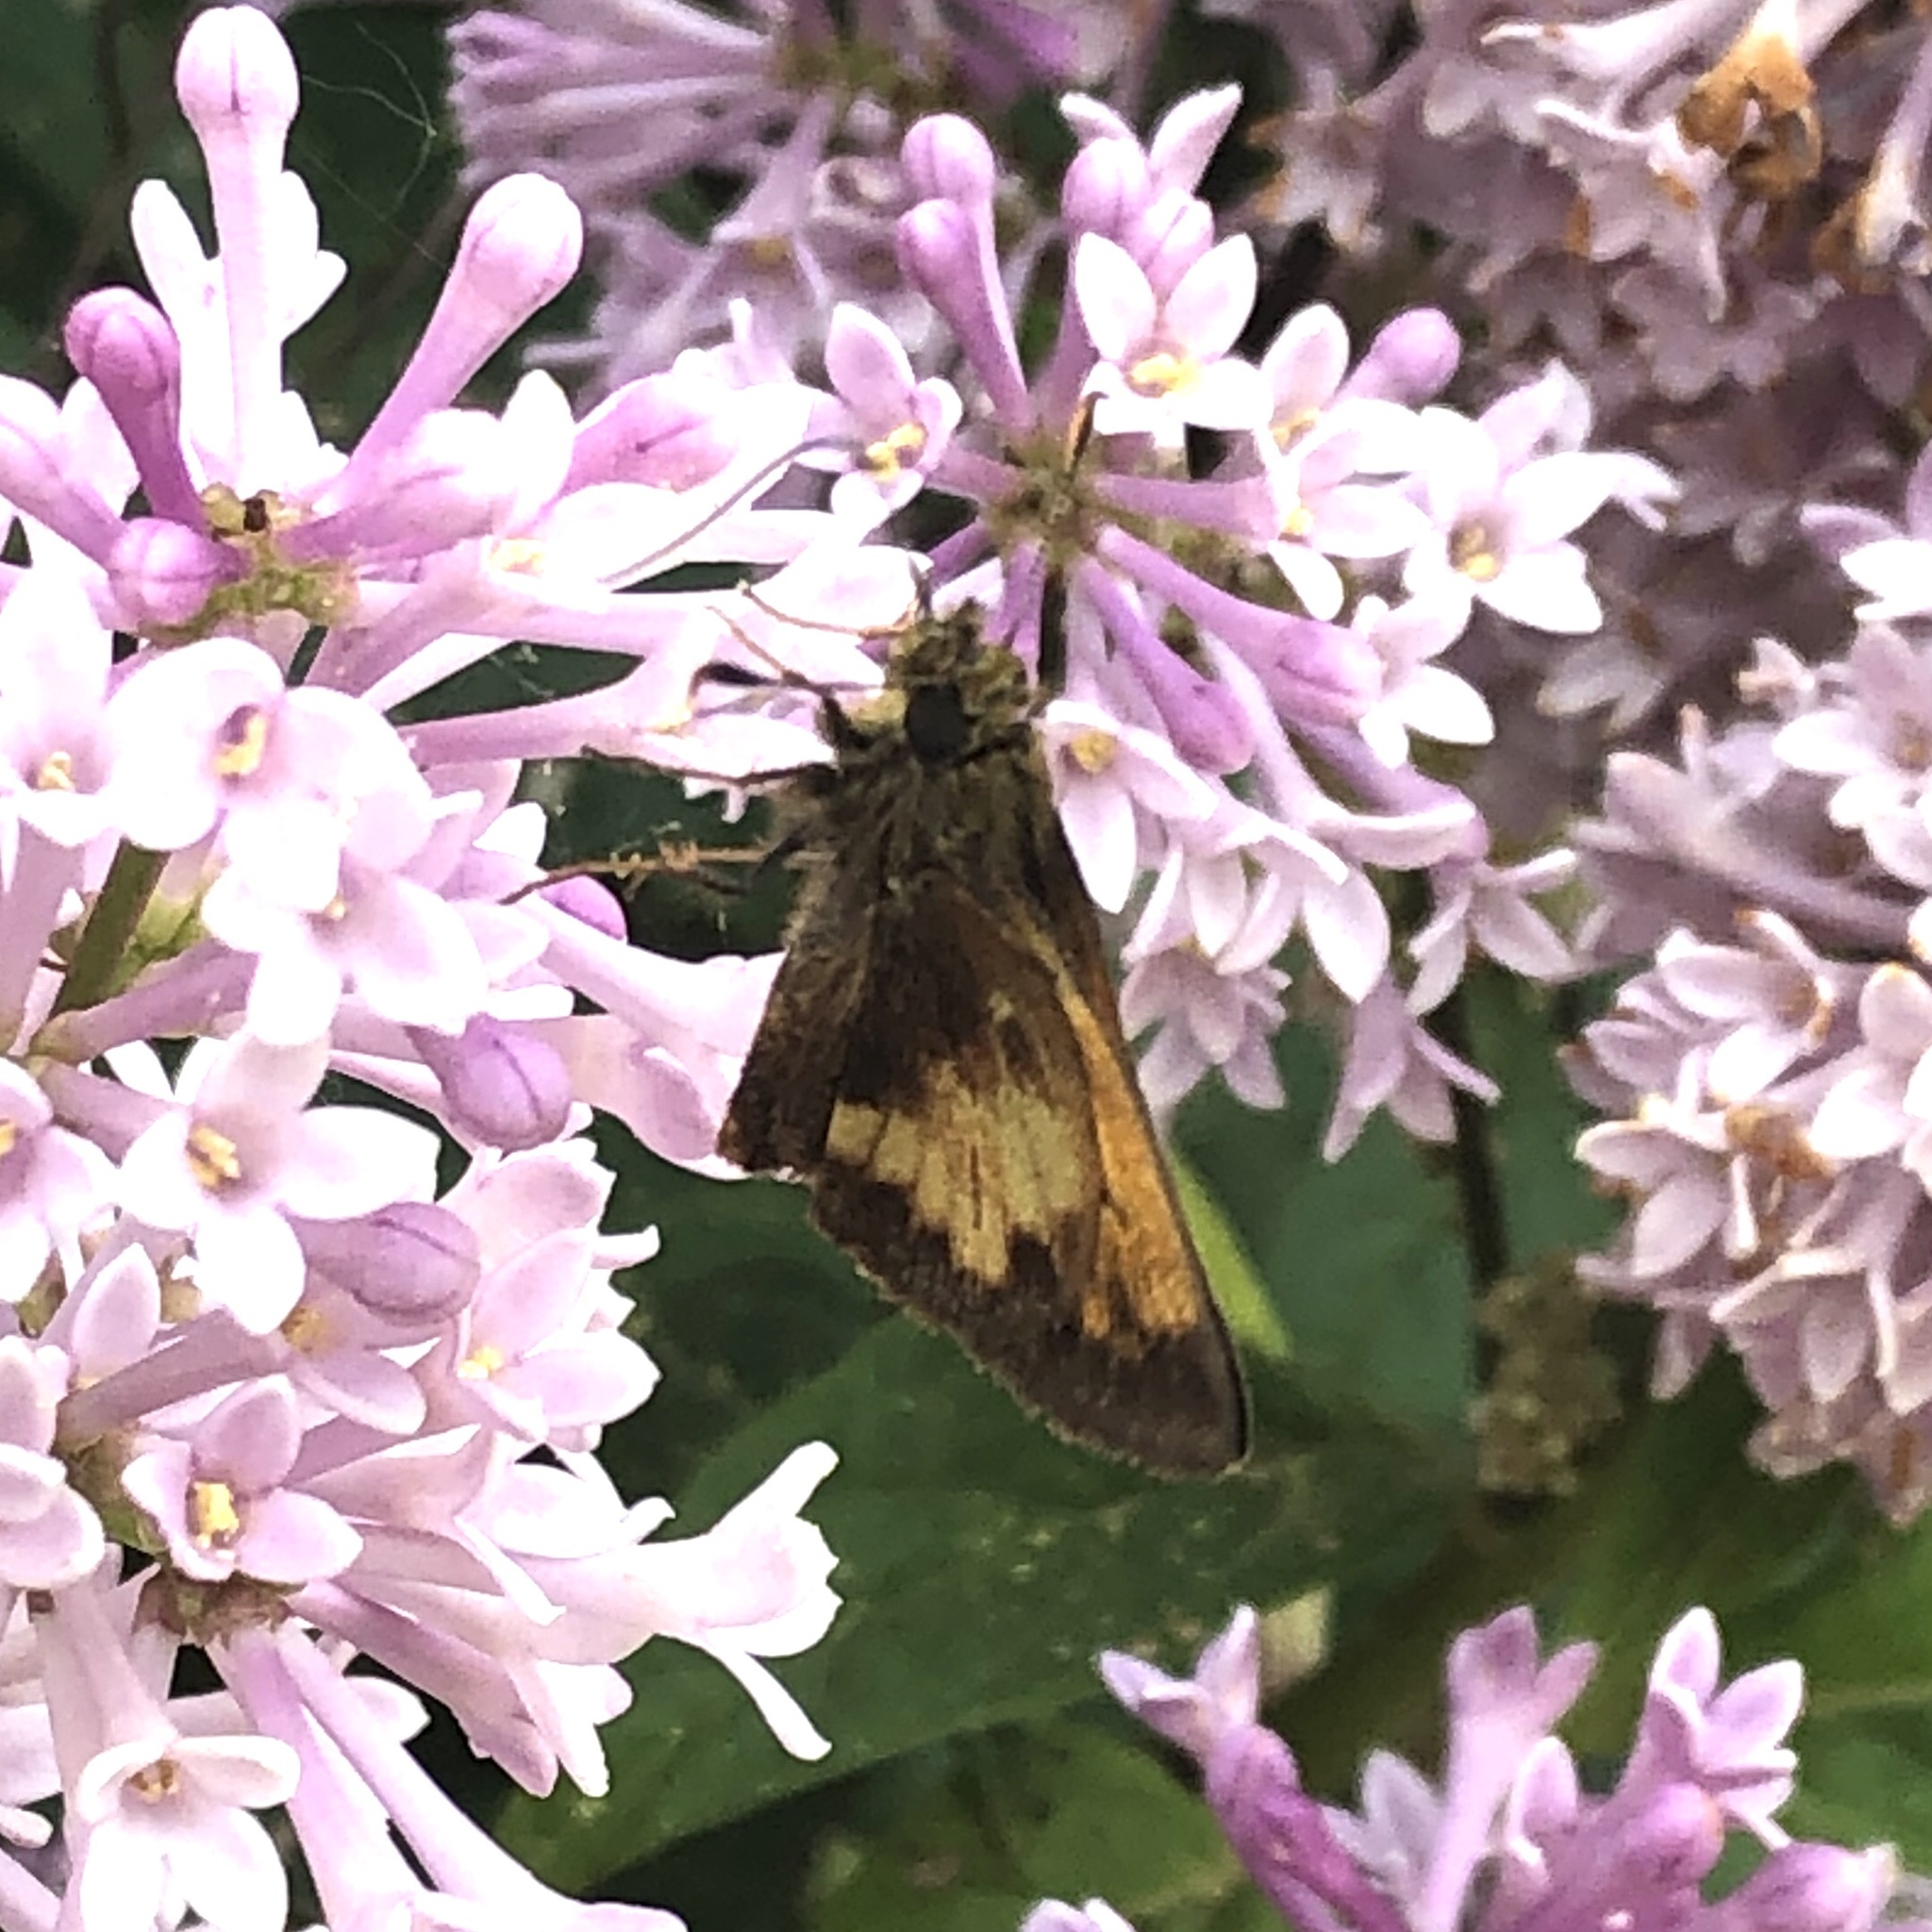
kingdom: Animalia
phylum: Arthropoda
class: Insecta
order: Lepidoptera
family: Hesperiidae
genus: Lon
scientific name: Lon hobomok
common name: Hobomok skipper
